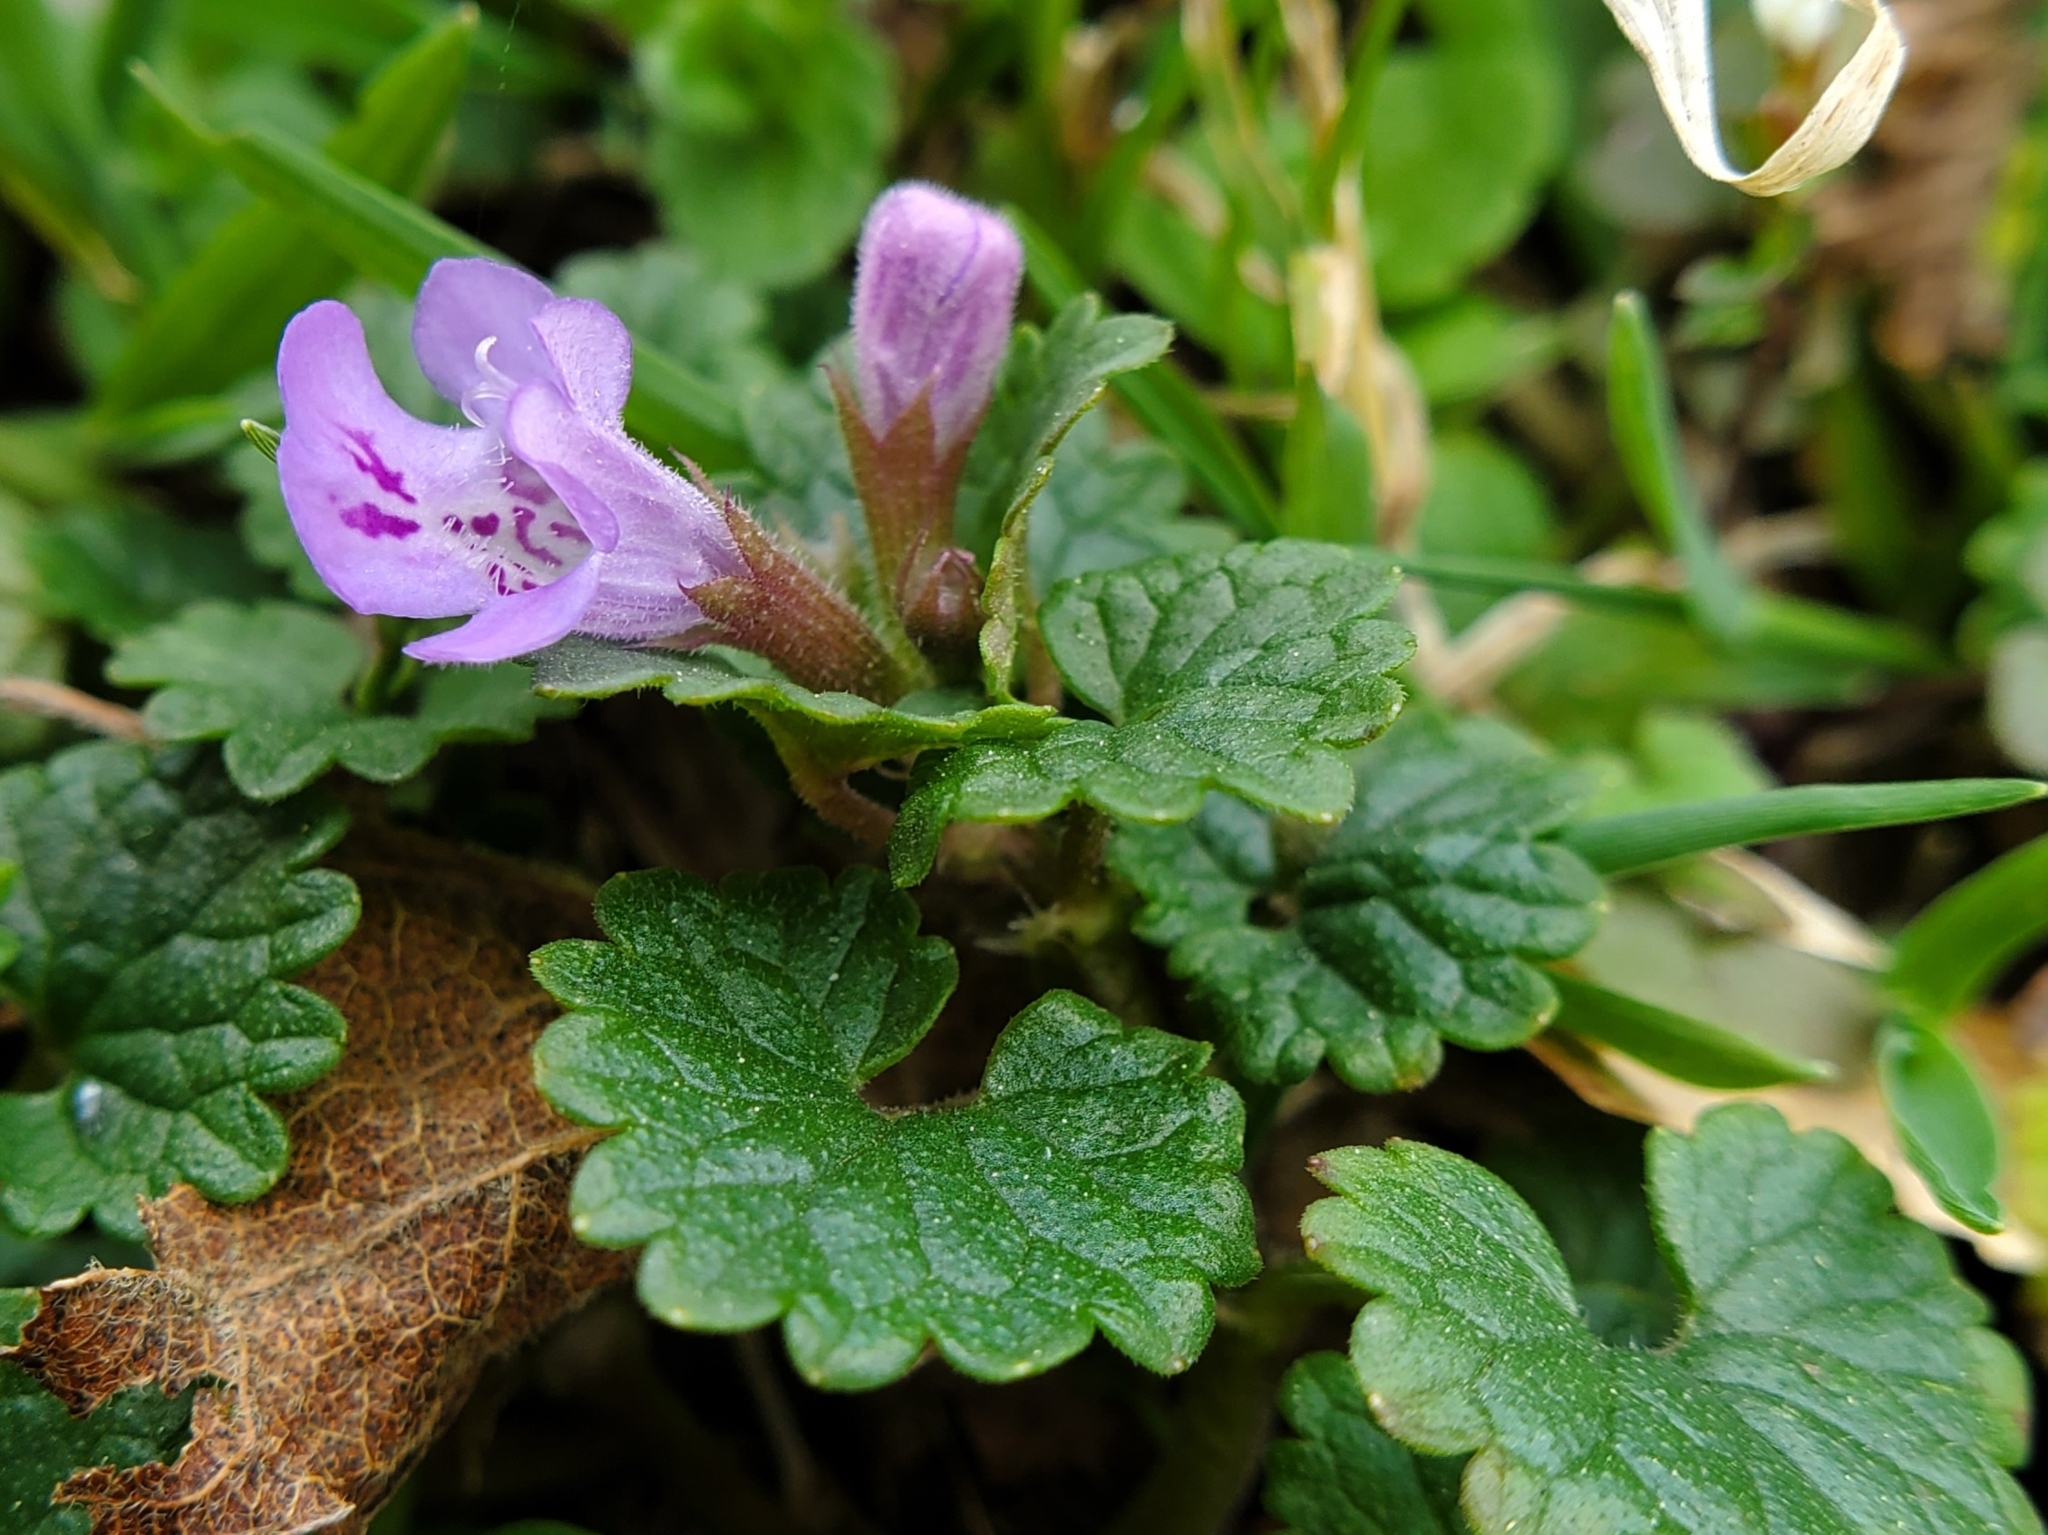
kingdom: Plantae
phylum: Tracheophyta
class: Magnoliopsida
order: Lamiales
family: Lamiaceae
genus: Glechoma
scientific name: Glechoma hederacea
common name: Ground ivy
